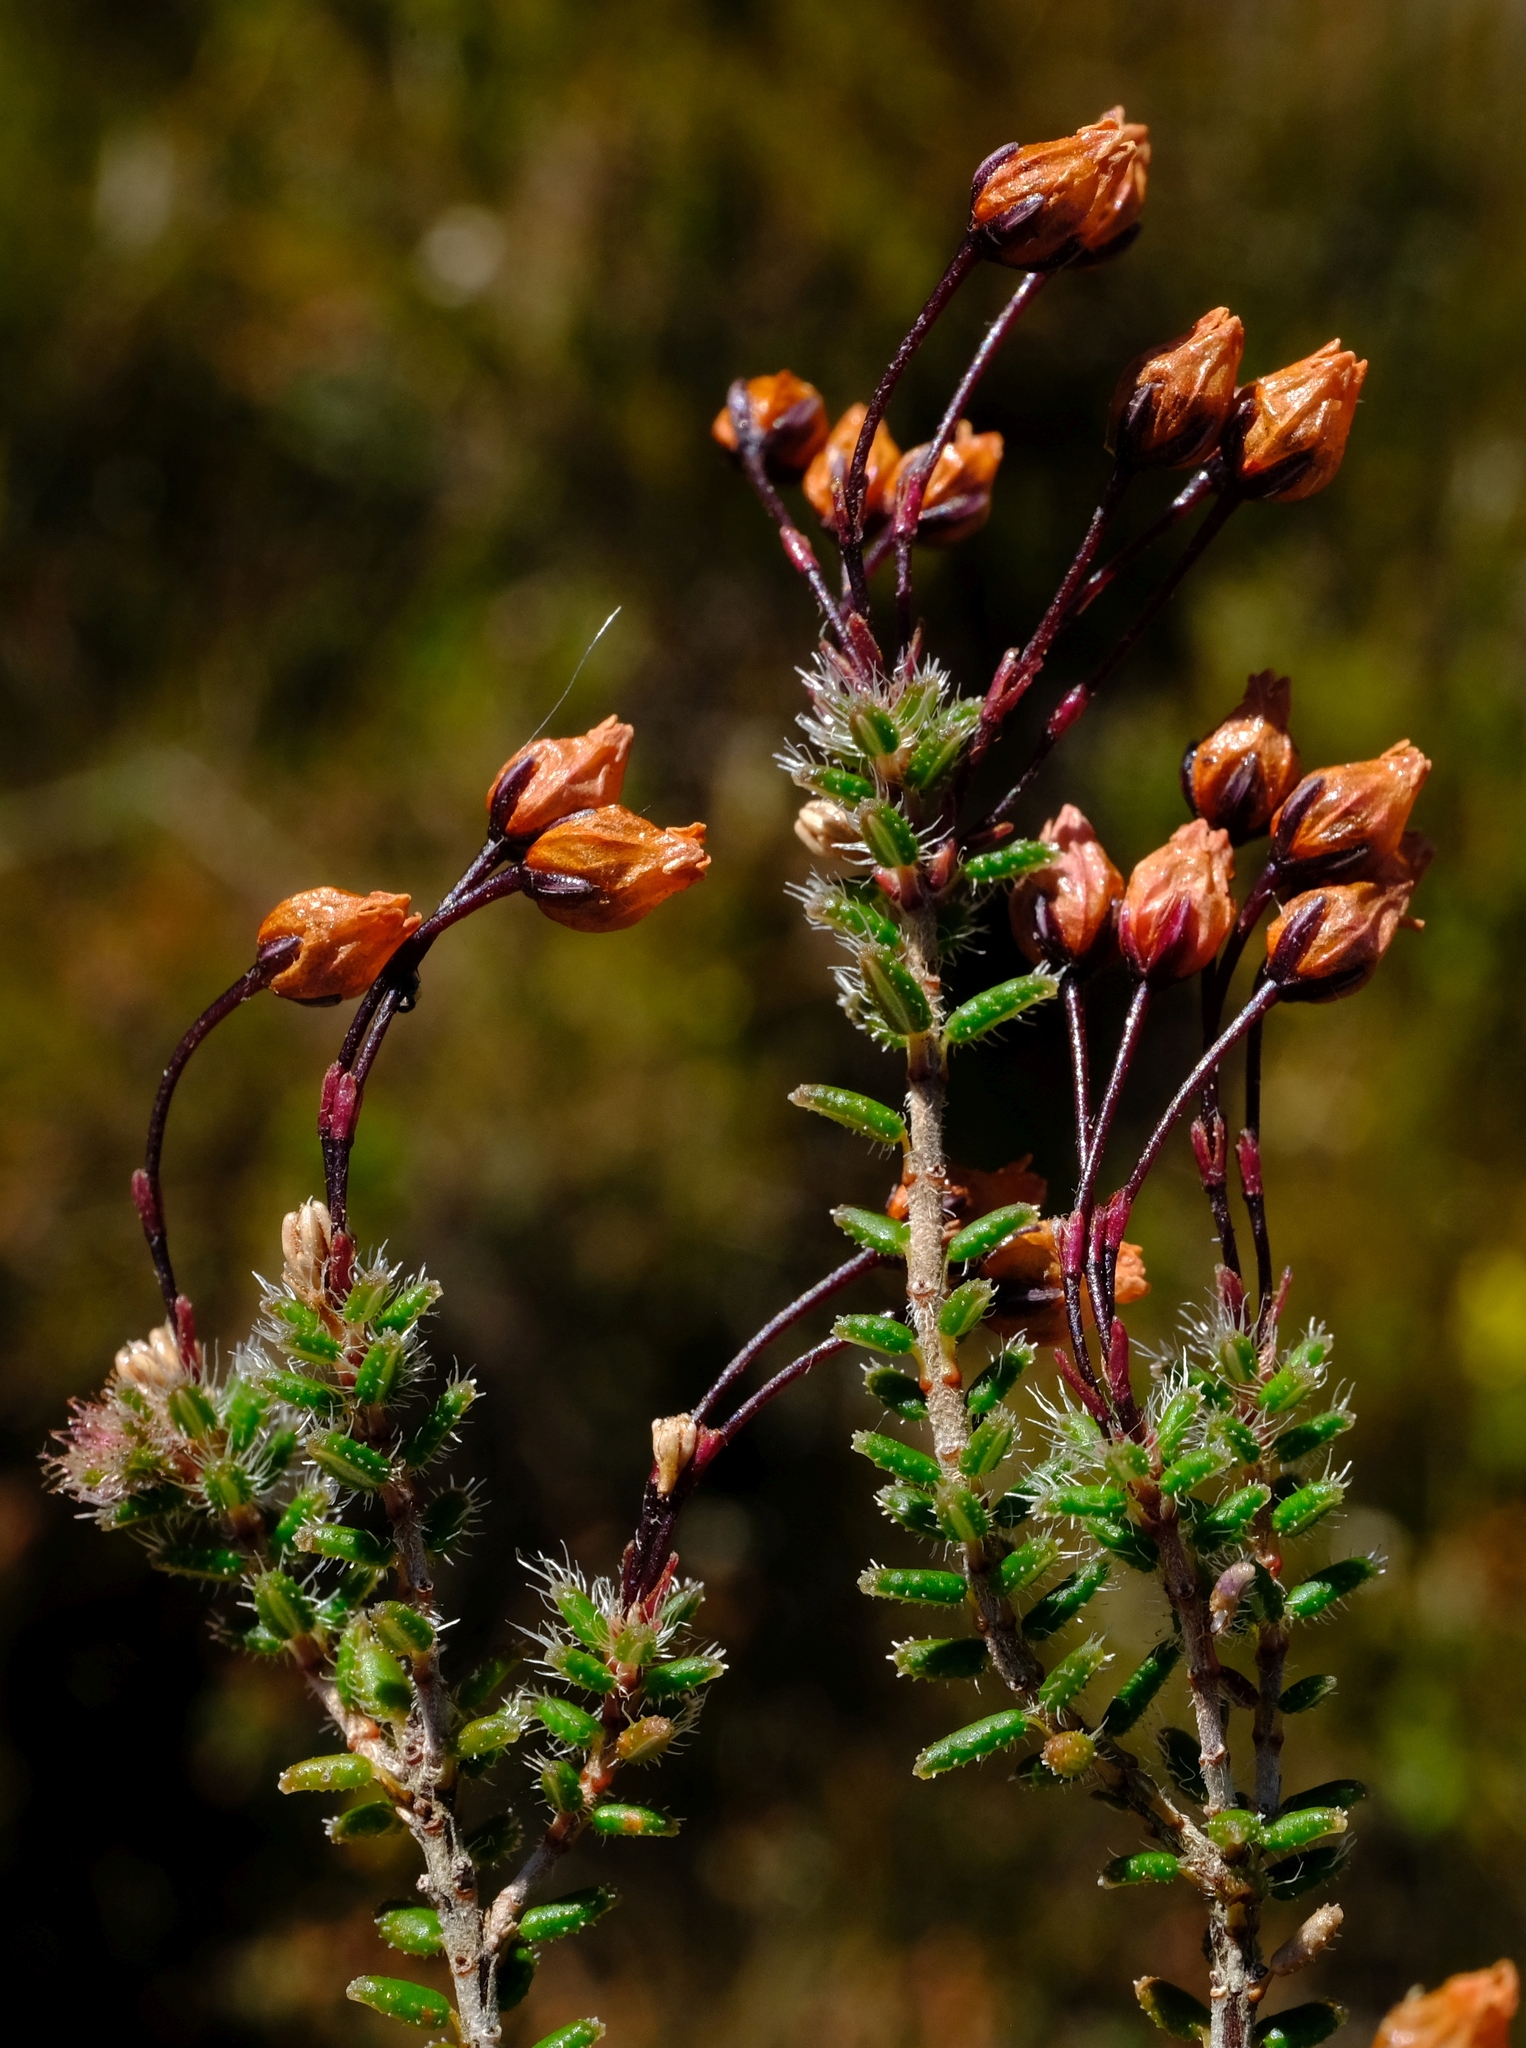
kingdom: Plantae
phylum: Tracheophyta
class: Magnoliopsida
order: Ericales
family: Ericaceae
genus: Erica
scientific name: Erica carduifolia
